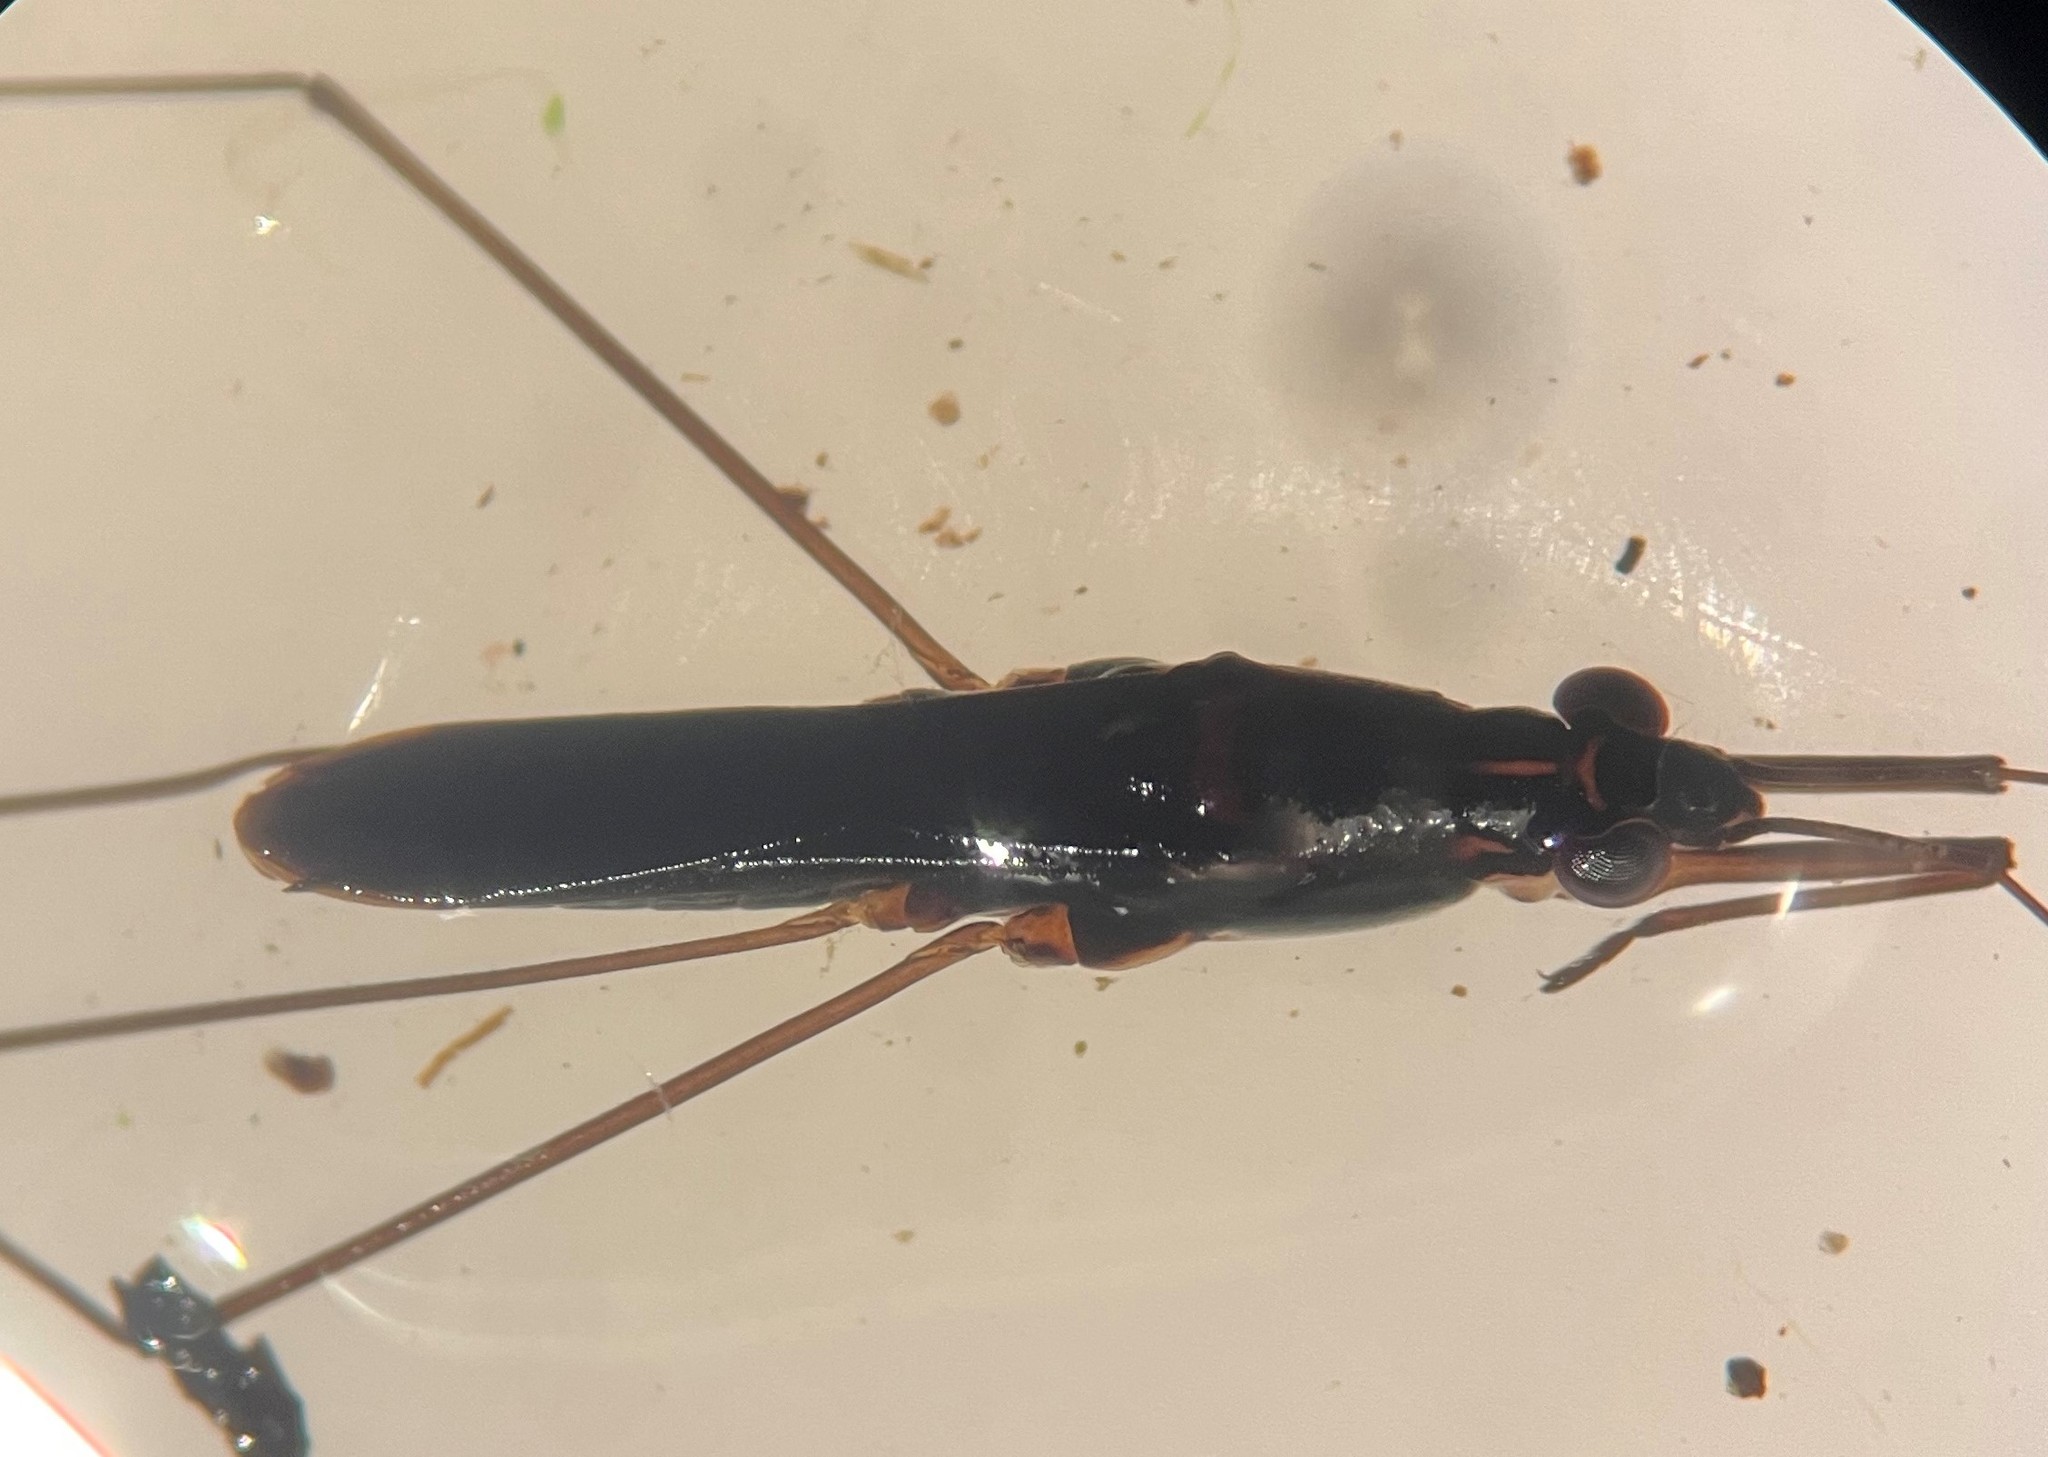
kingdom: Animalia
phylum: Arthropoda
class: Insecta
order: Hemiptera
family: Gerridae
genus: Limnoporus
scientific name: Limnoporus canaliculatus
